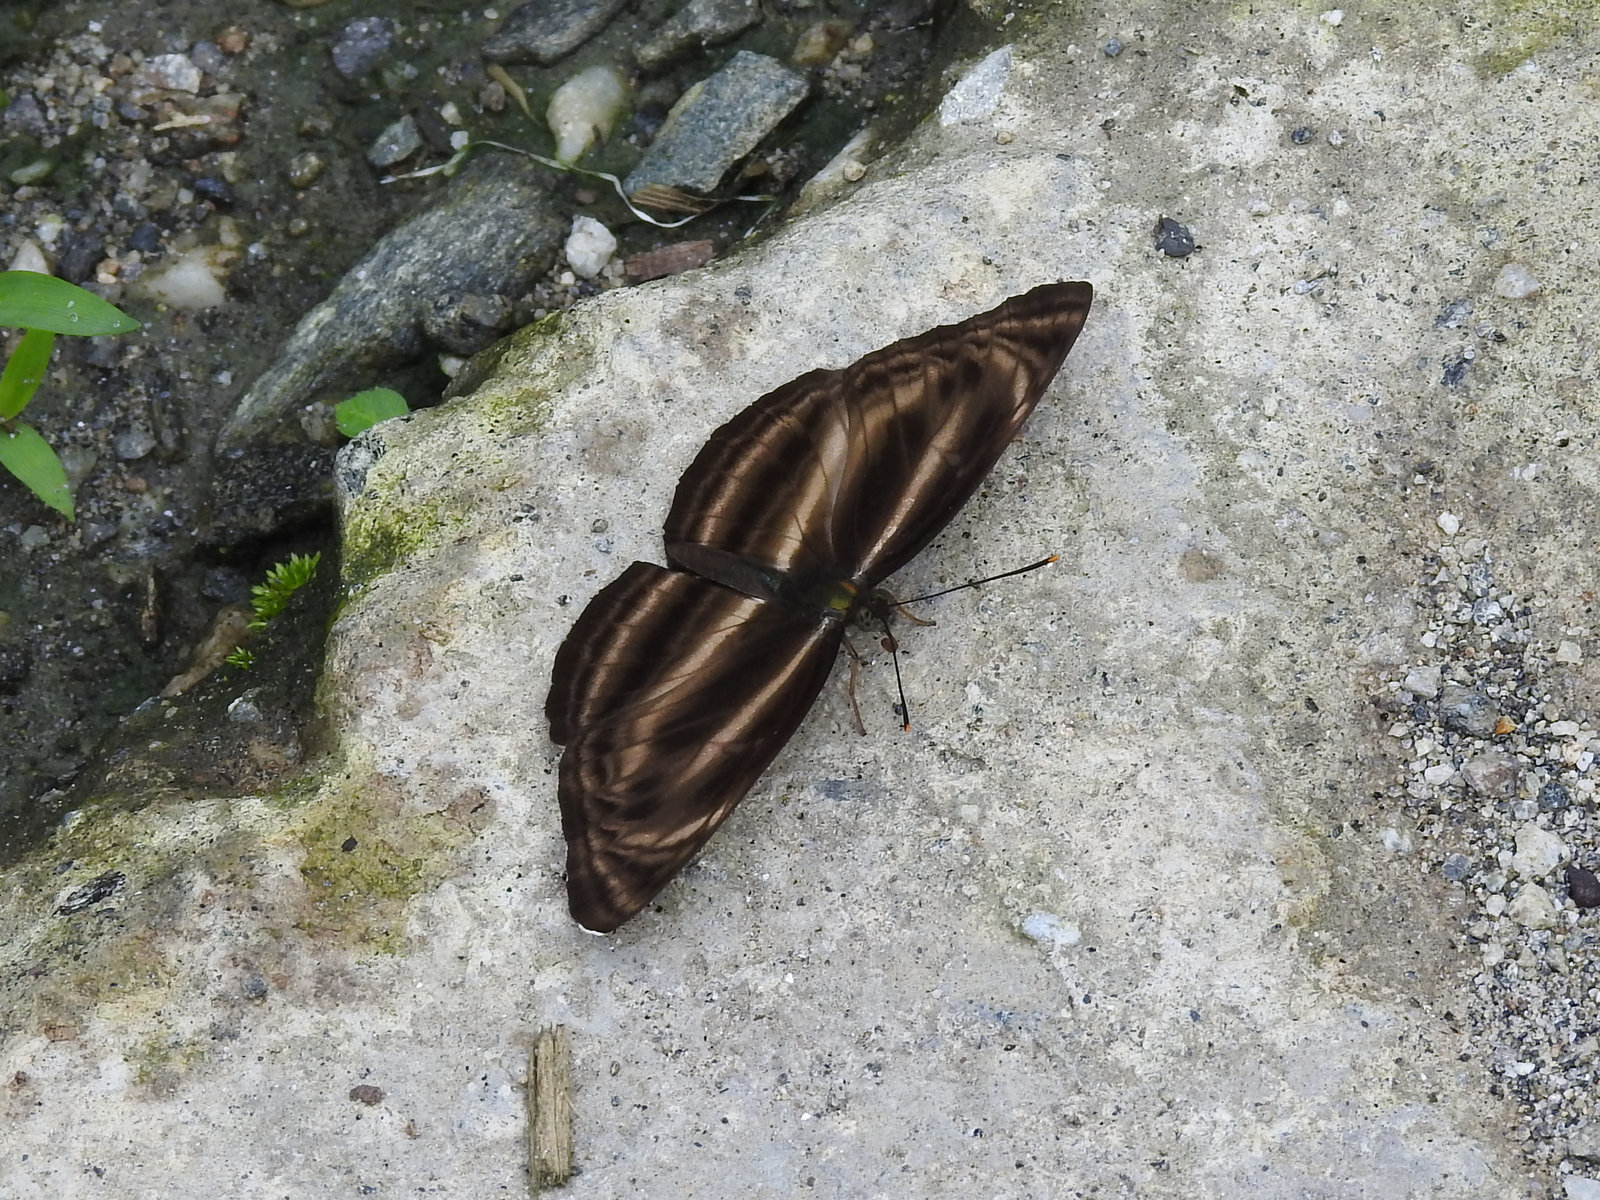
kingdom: Animalia
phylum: Arthropoda
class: Insecta
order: Lepidoptera
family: Nymphalidae
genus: Neptis
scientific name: Neptis
